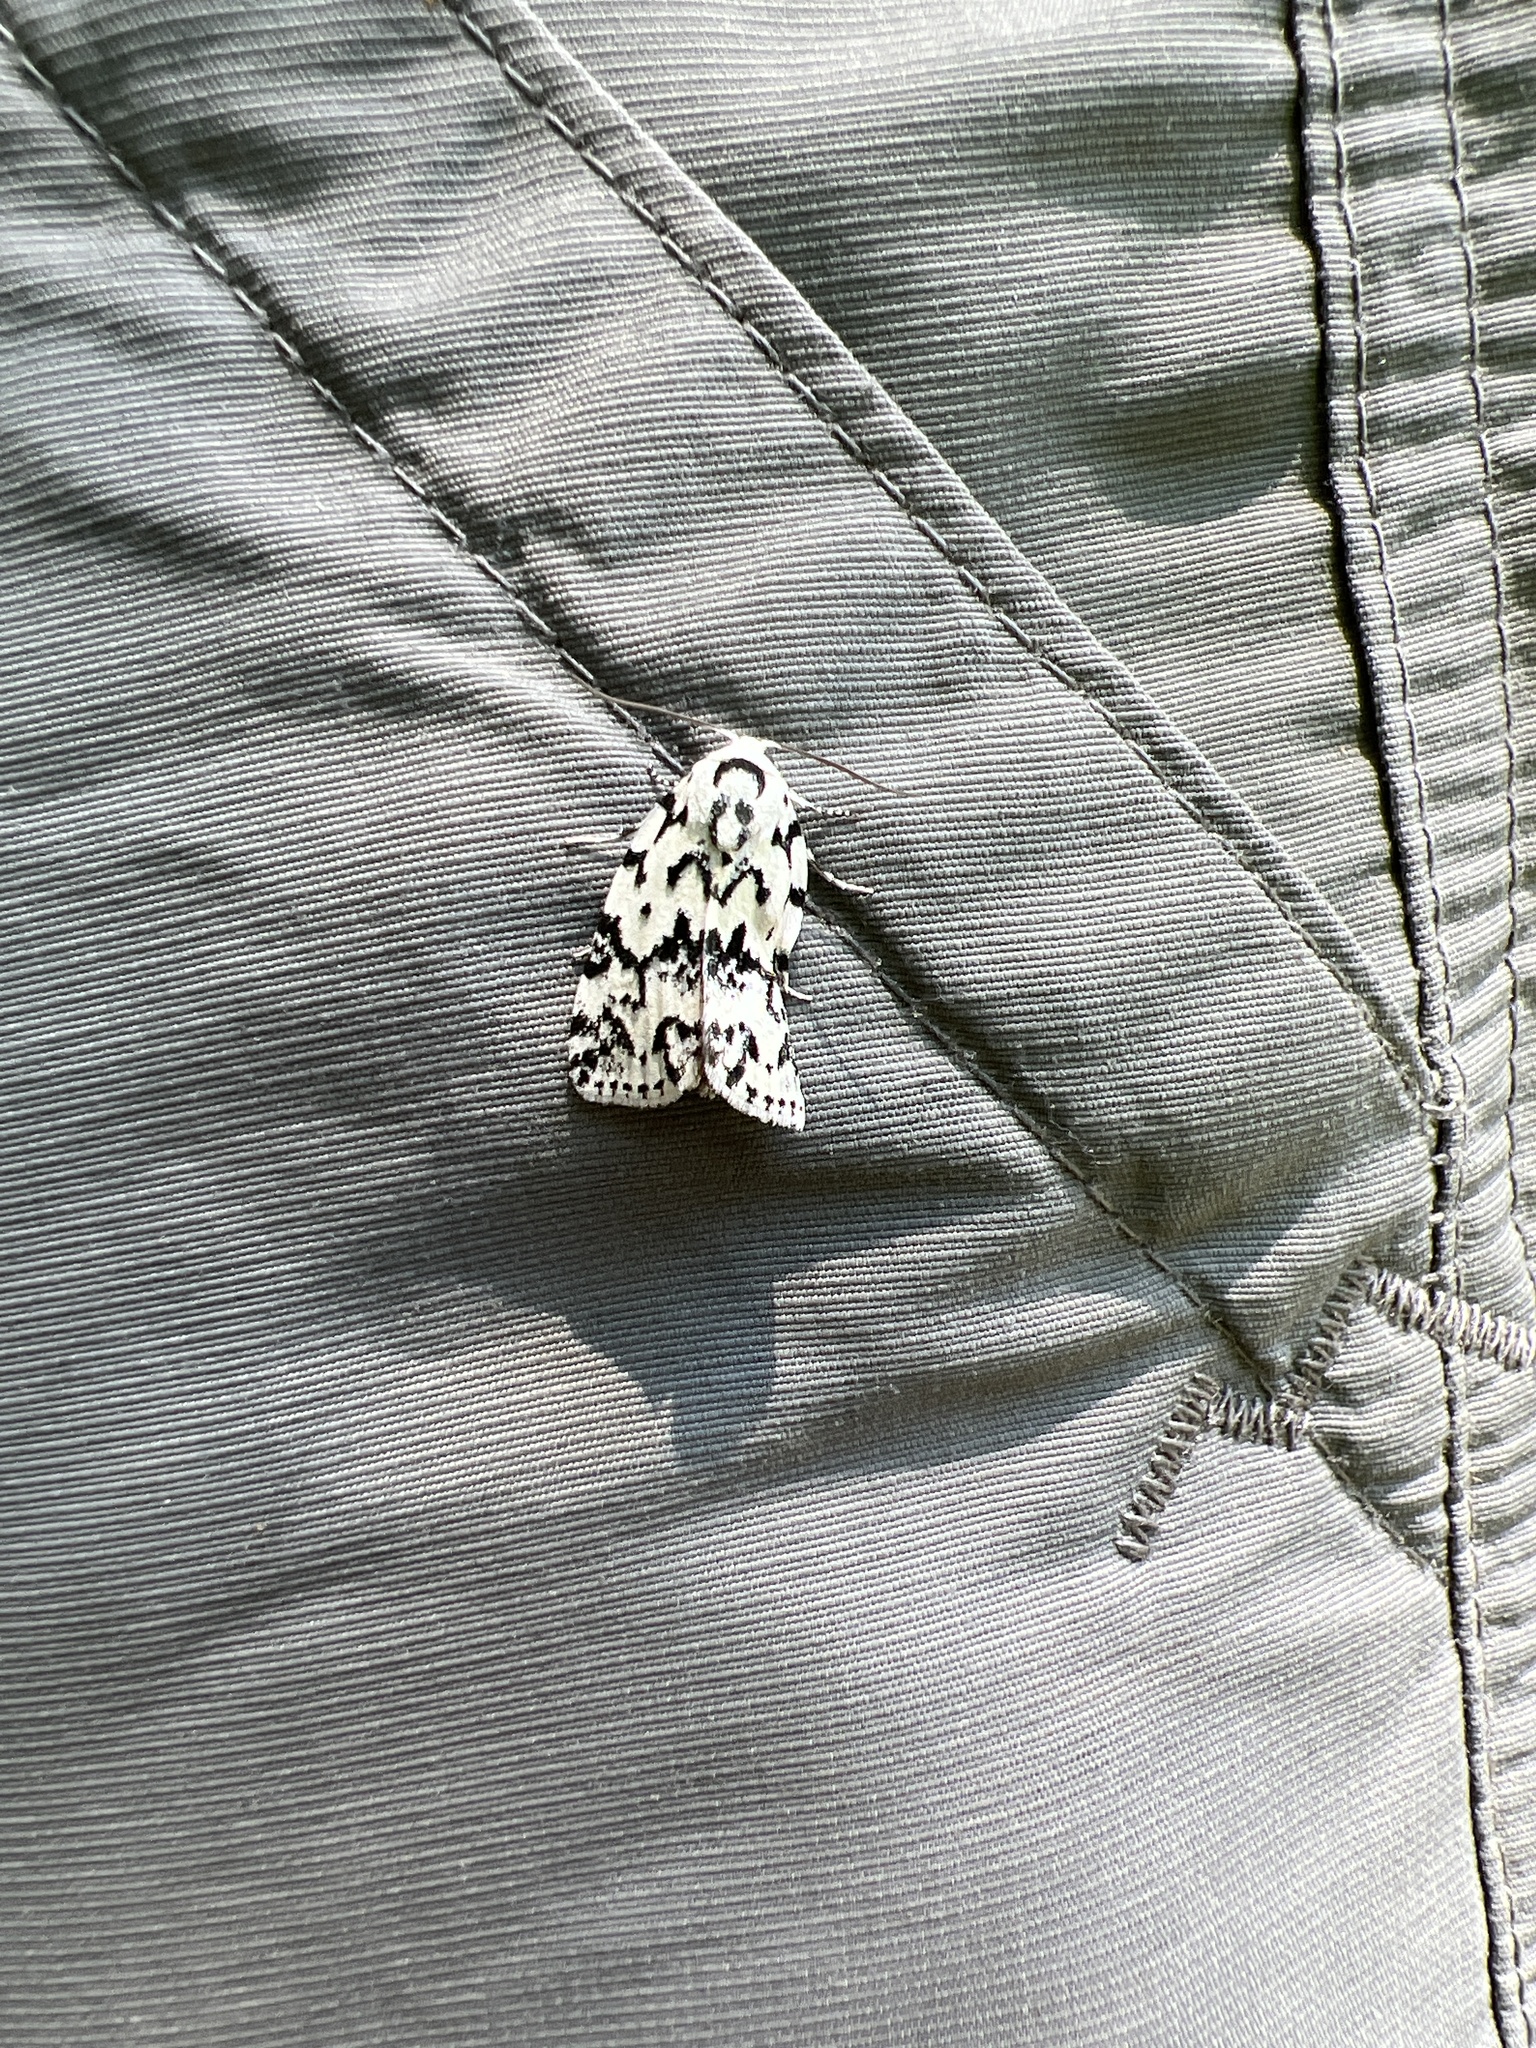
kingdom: Animalia
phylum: Arthropoda
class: Insecta
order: Lepidoptera
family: Noctuidae
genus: Polygrammate
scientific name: Polygrammate hebraeicum
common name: Hebrew moth
